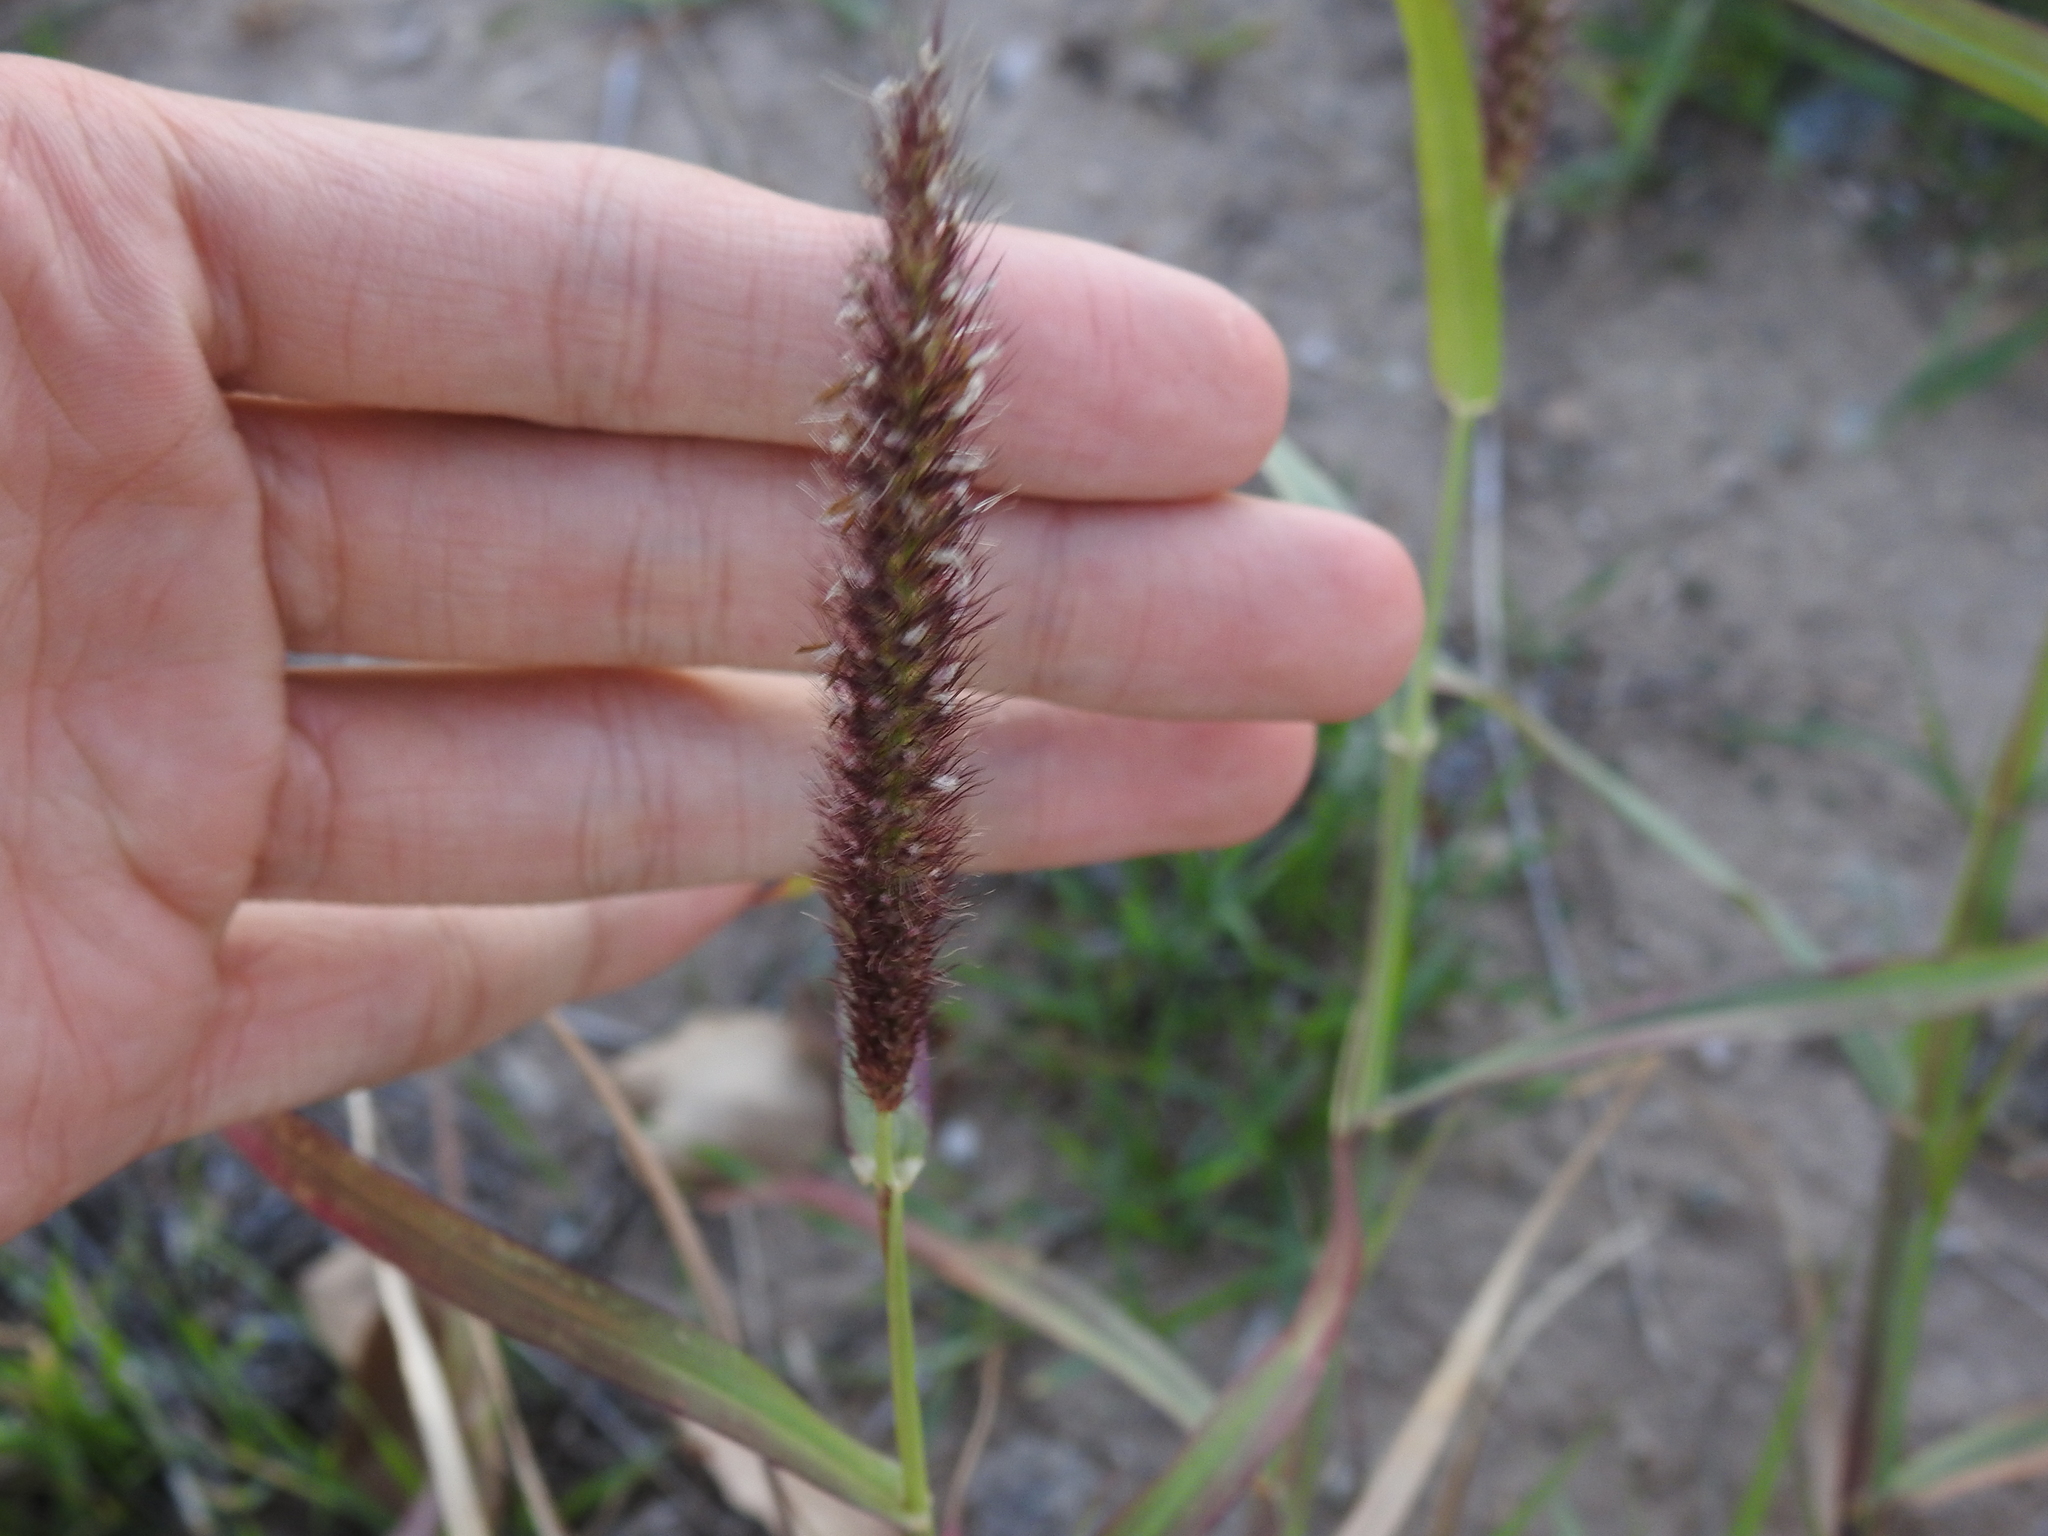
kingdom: Plantae
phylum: Tracheophyta
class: Liliopsida
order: Poales
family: Poaceae
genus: Cenchrus
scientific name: Cenchrus ciliaris
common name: Buffelgrass
